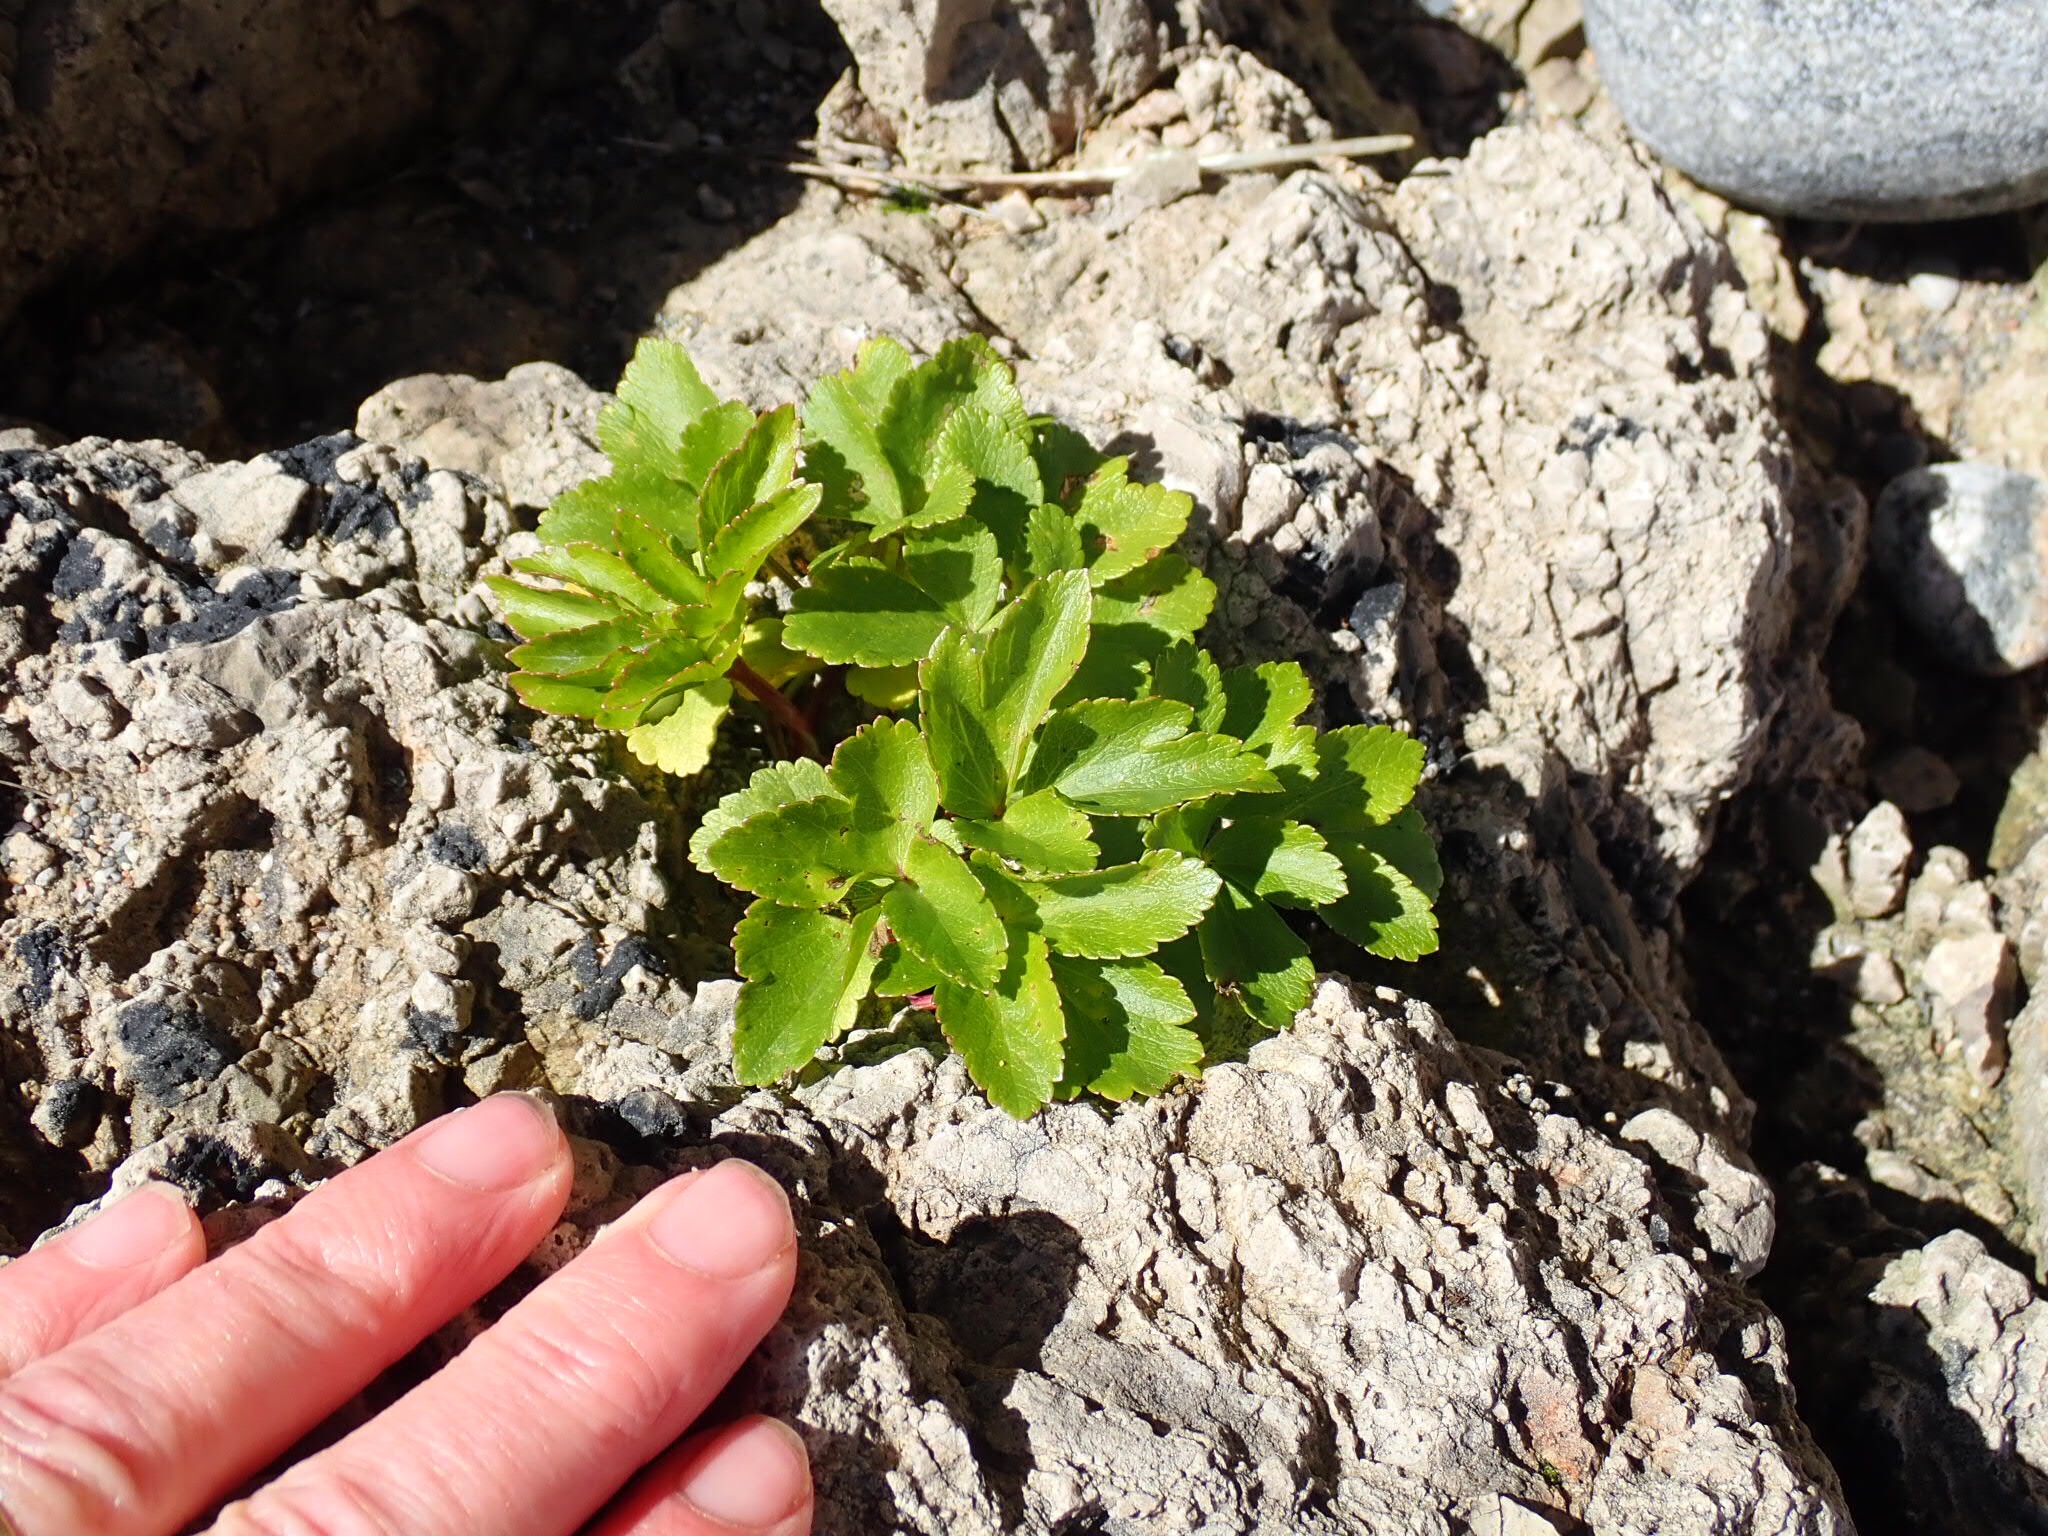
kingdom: Plantae
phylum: Tracheophyta
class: Magnoliopsida
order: Apiales
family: Apiaceae
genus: Ligusticum
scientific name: Ligusticum scothicum
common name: Beach lovage
